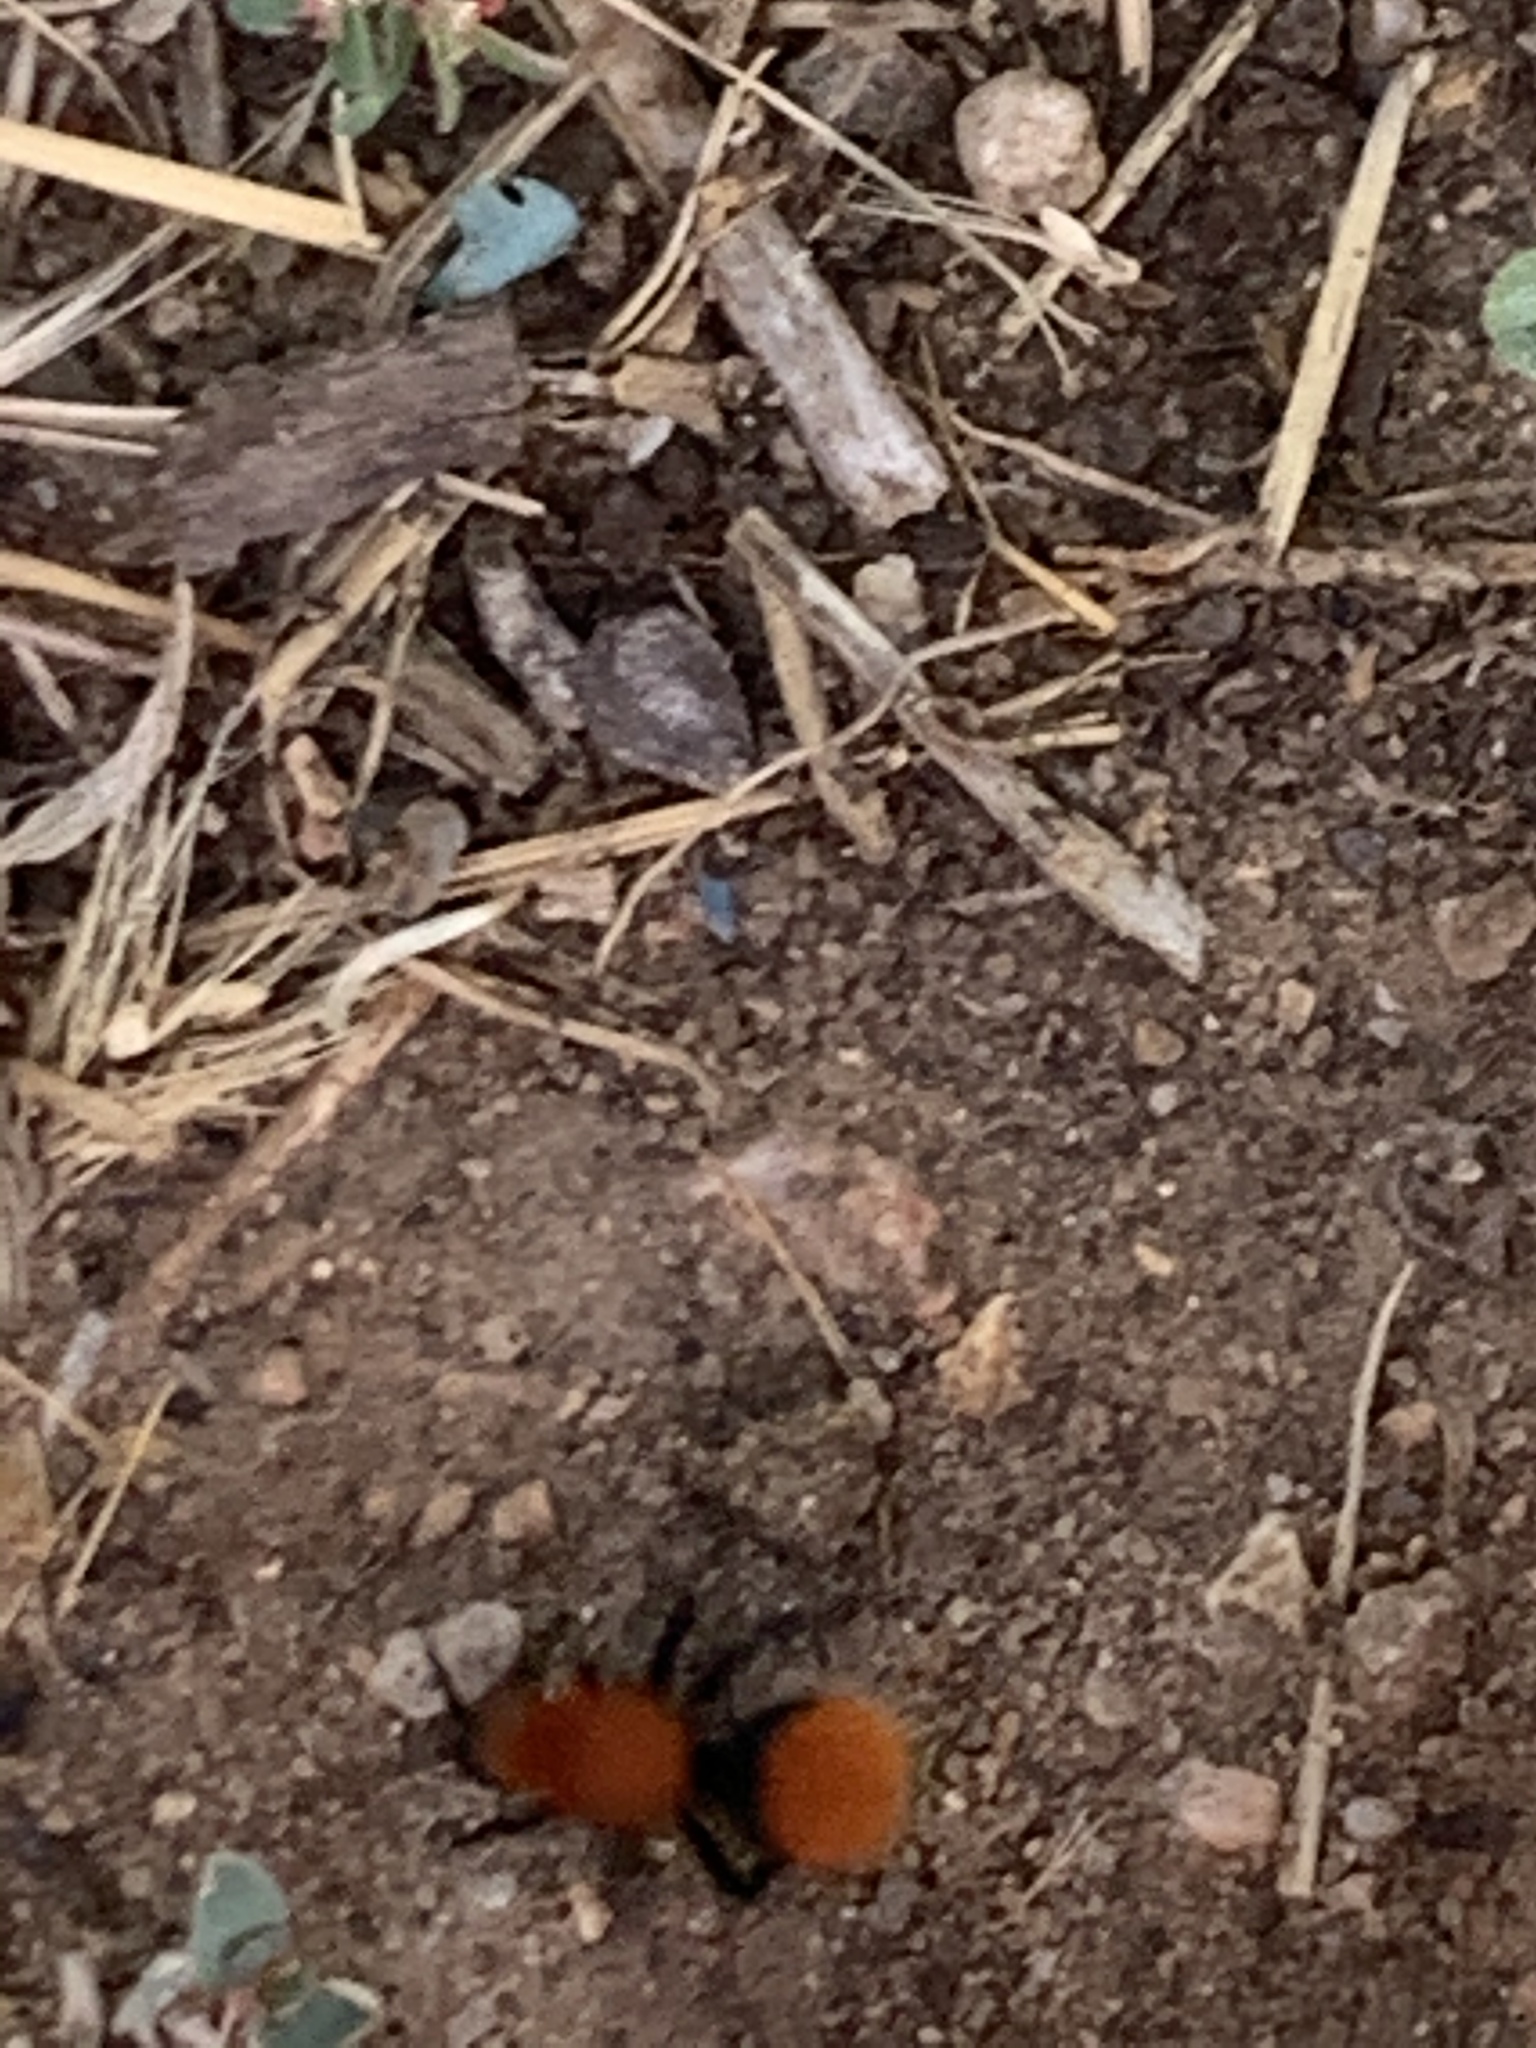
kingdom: Animalia
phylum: Arthropoda
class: Insecta
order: Hymenoptera
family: Mutillidae
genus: Dasymutilla
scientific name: Dasymutilla vestita
